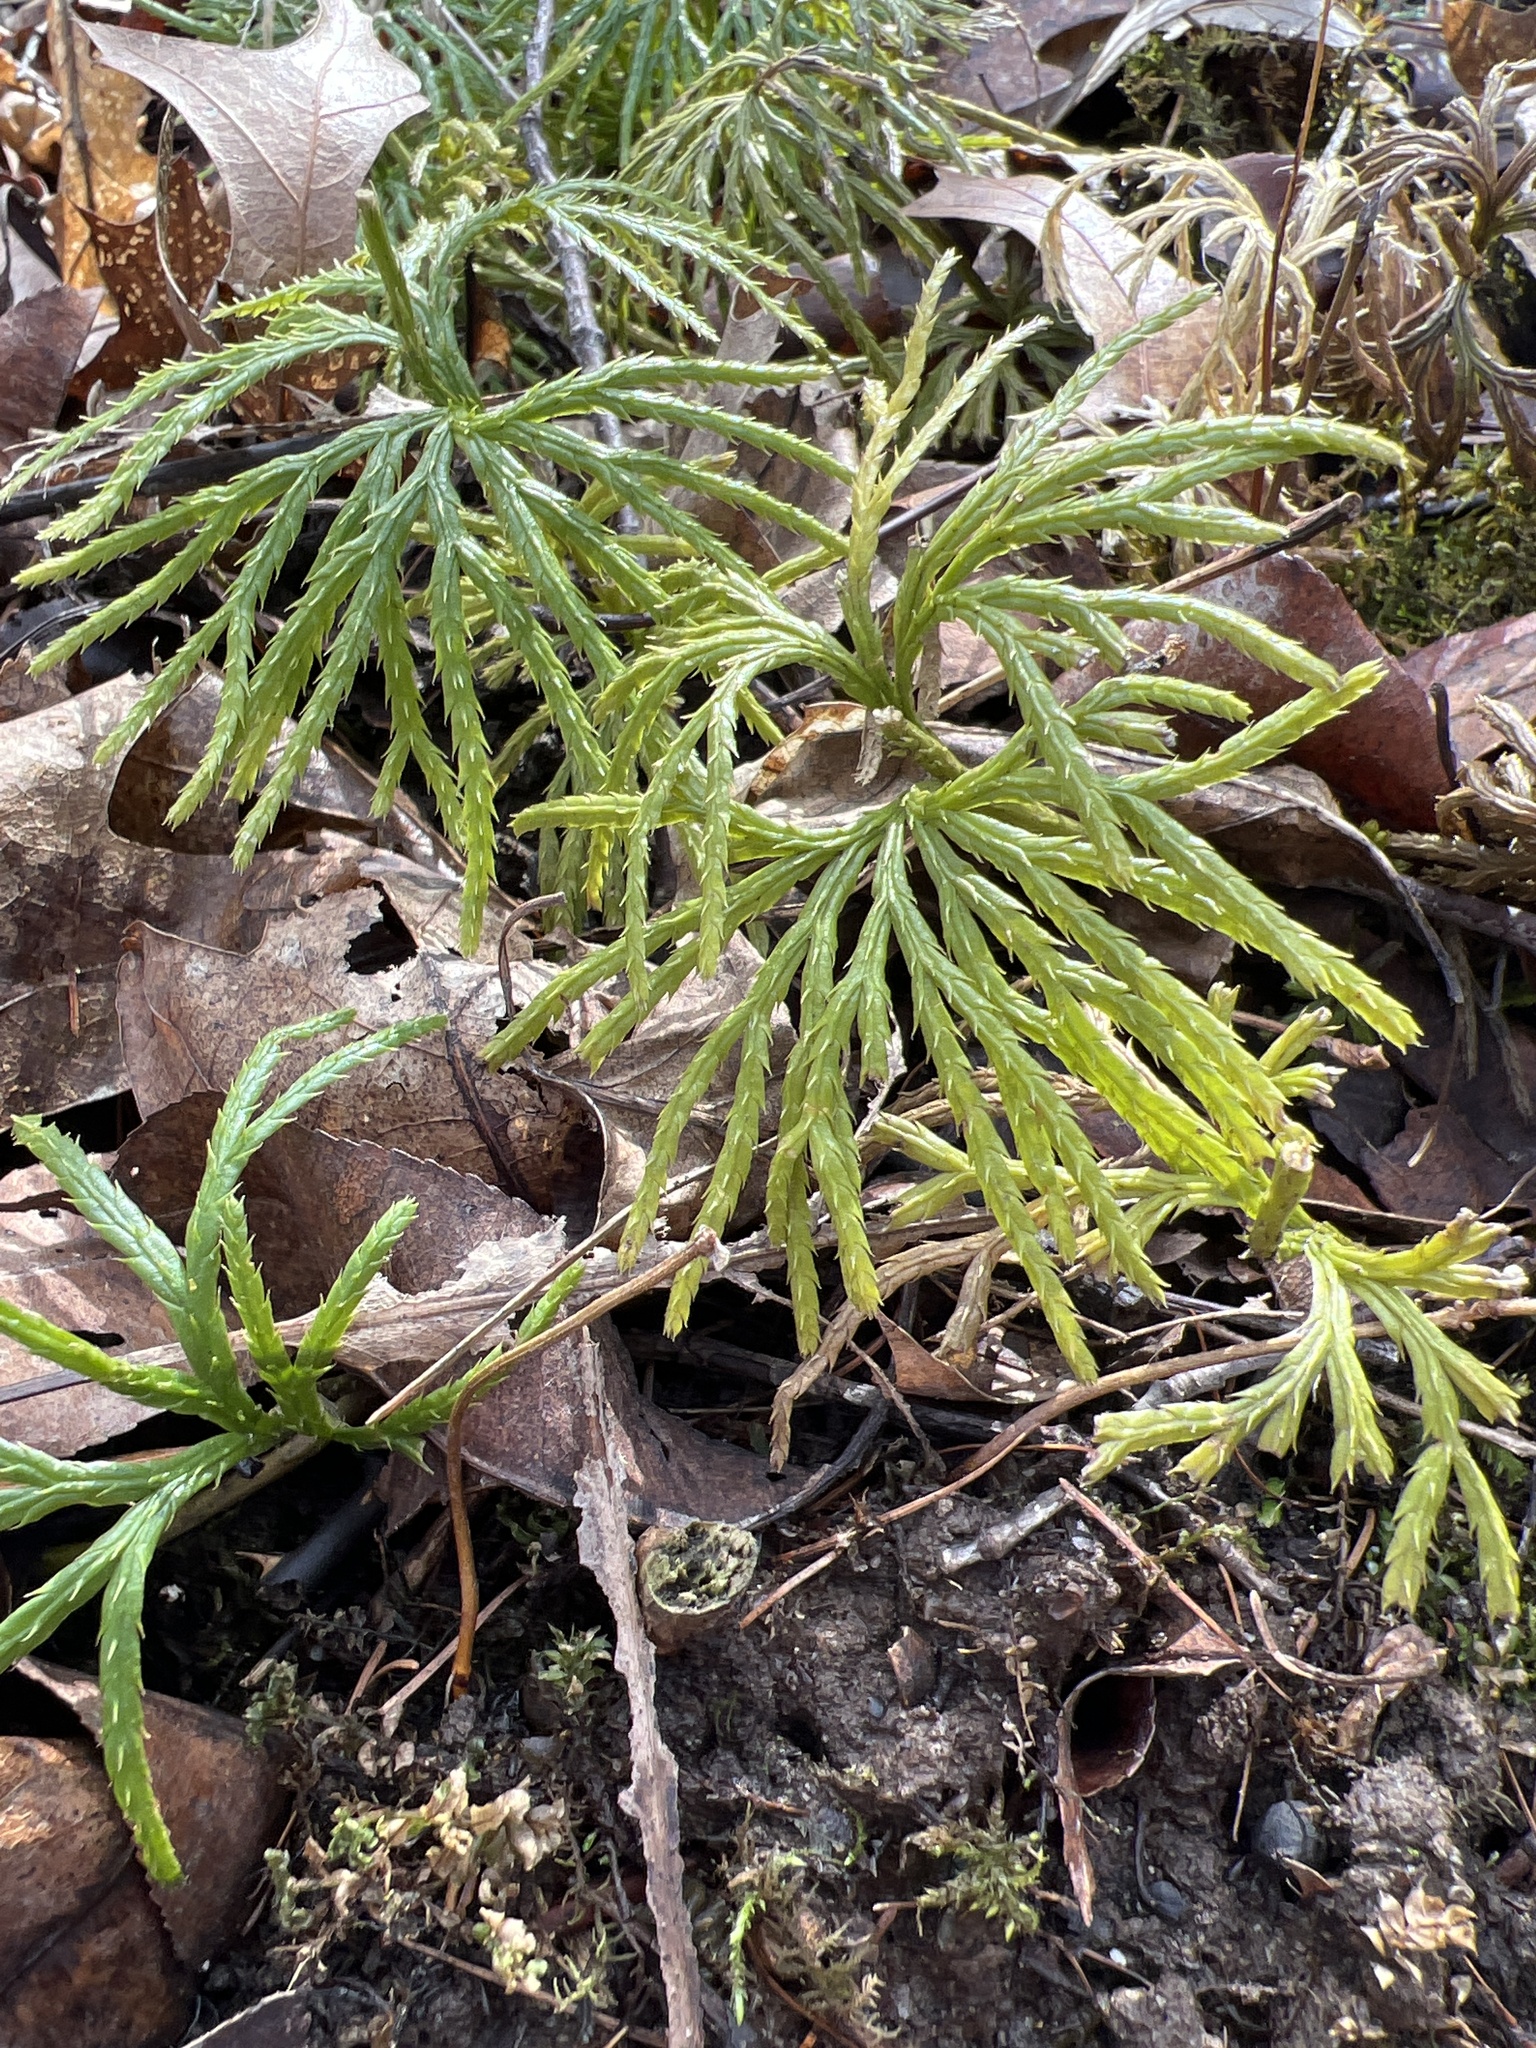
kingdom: Plantae
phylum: Tracheophyta
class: Lycopodiopsida
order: Lycopodiales
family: Lycopodiaceae
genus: Diphasiastrum
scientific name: Diphasiastrum digitatum
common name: Southern running-pine
